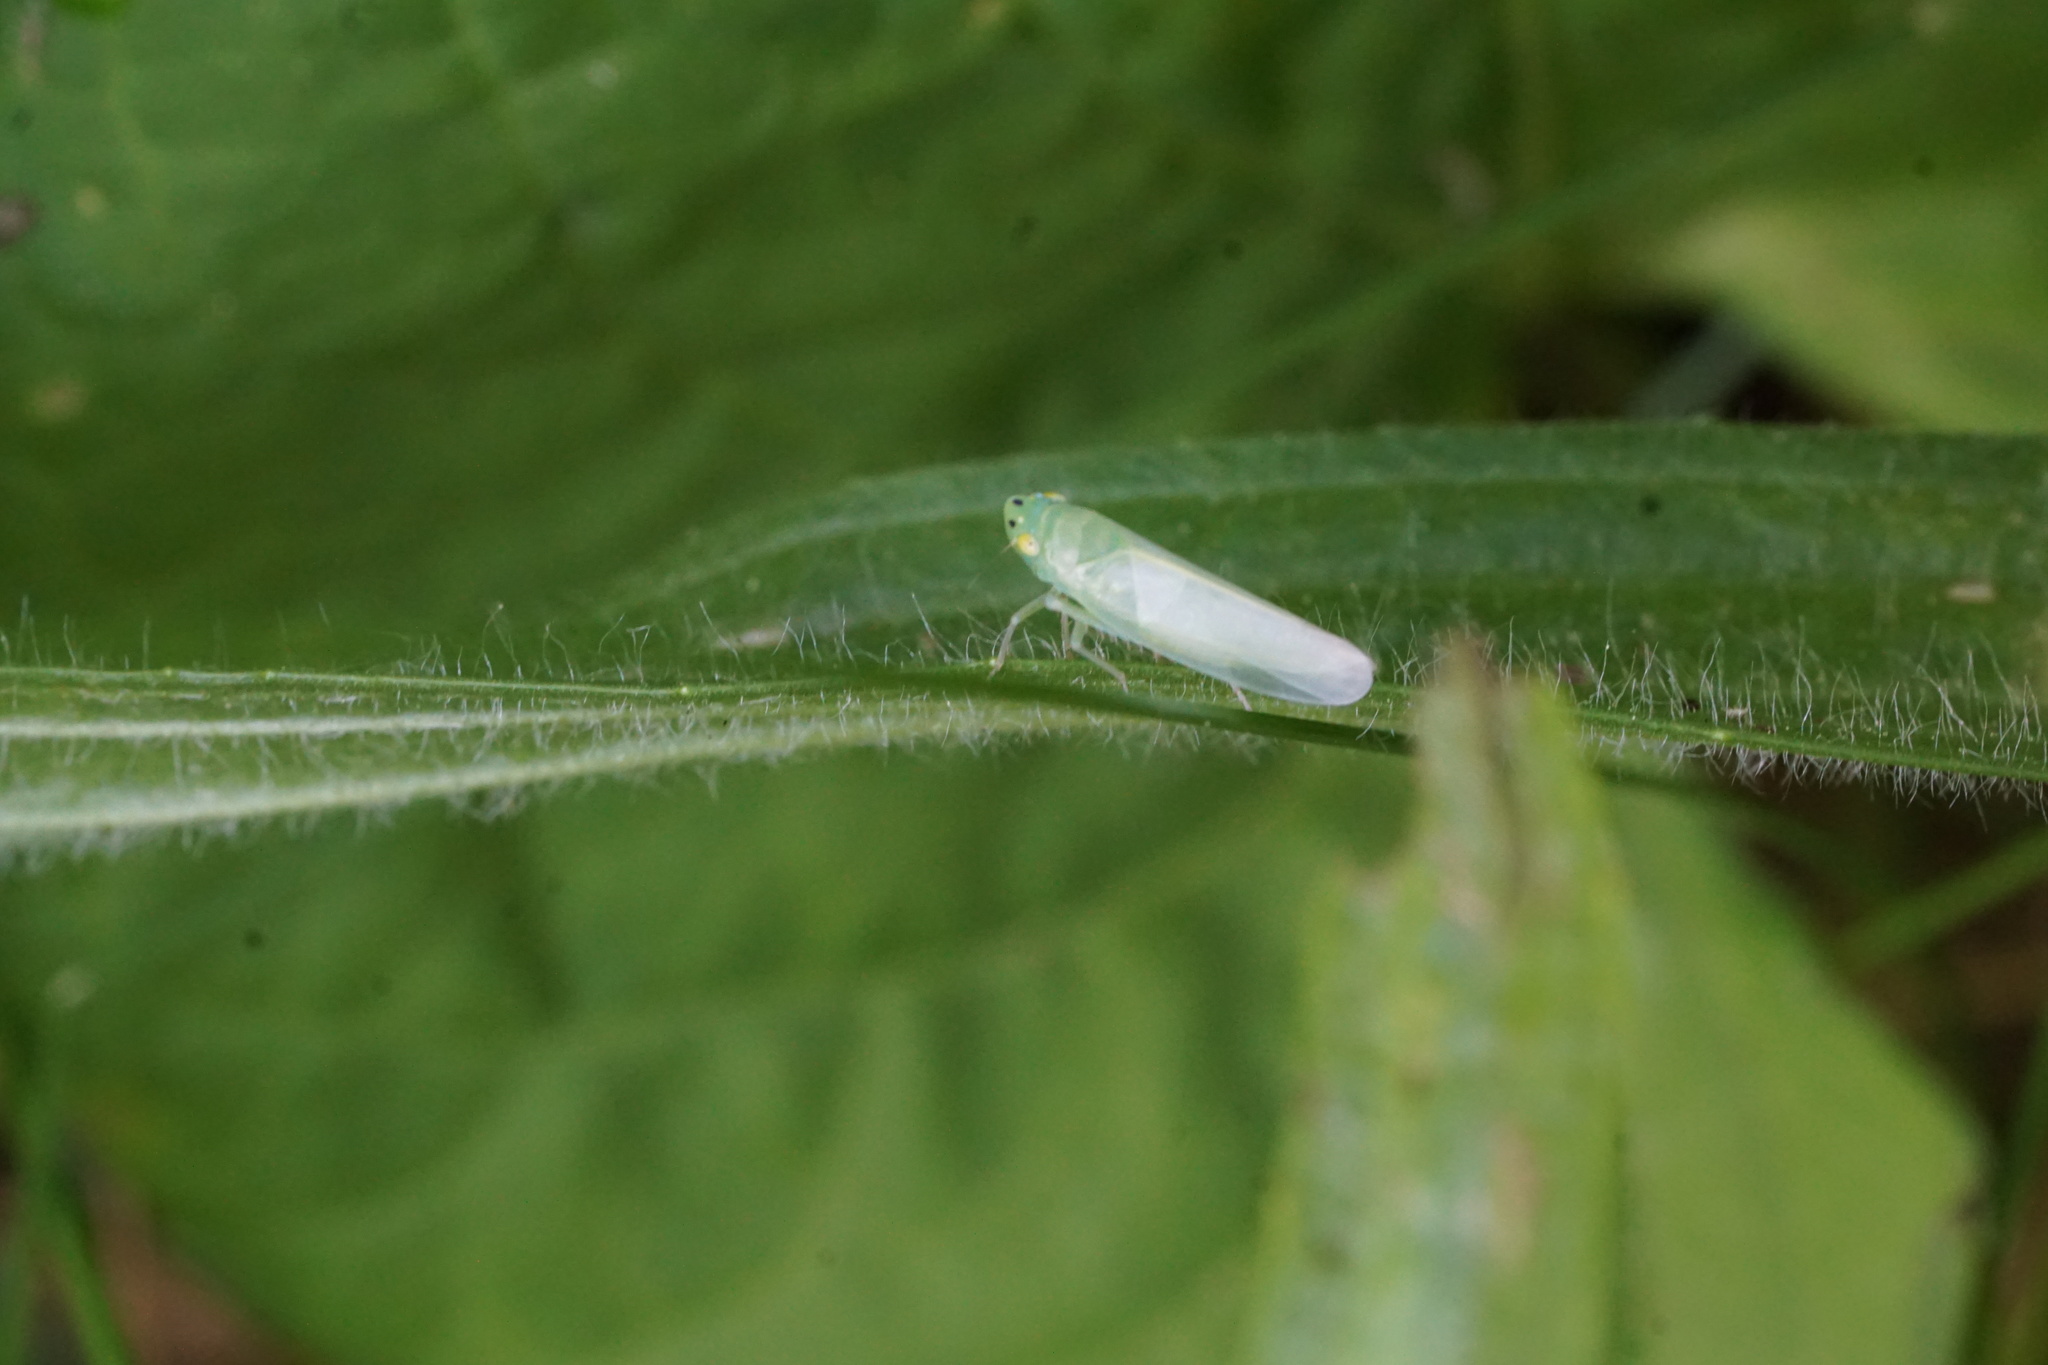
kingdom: Animalia
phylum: Arthropoda
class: Insecta
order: Hemiptera
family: Cicadellidae
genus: Pagaronia
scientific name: Pagaronia minor
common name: Leafhopper
